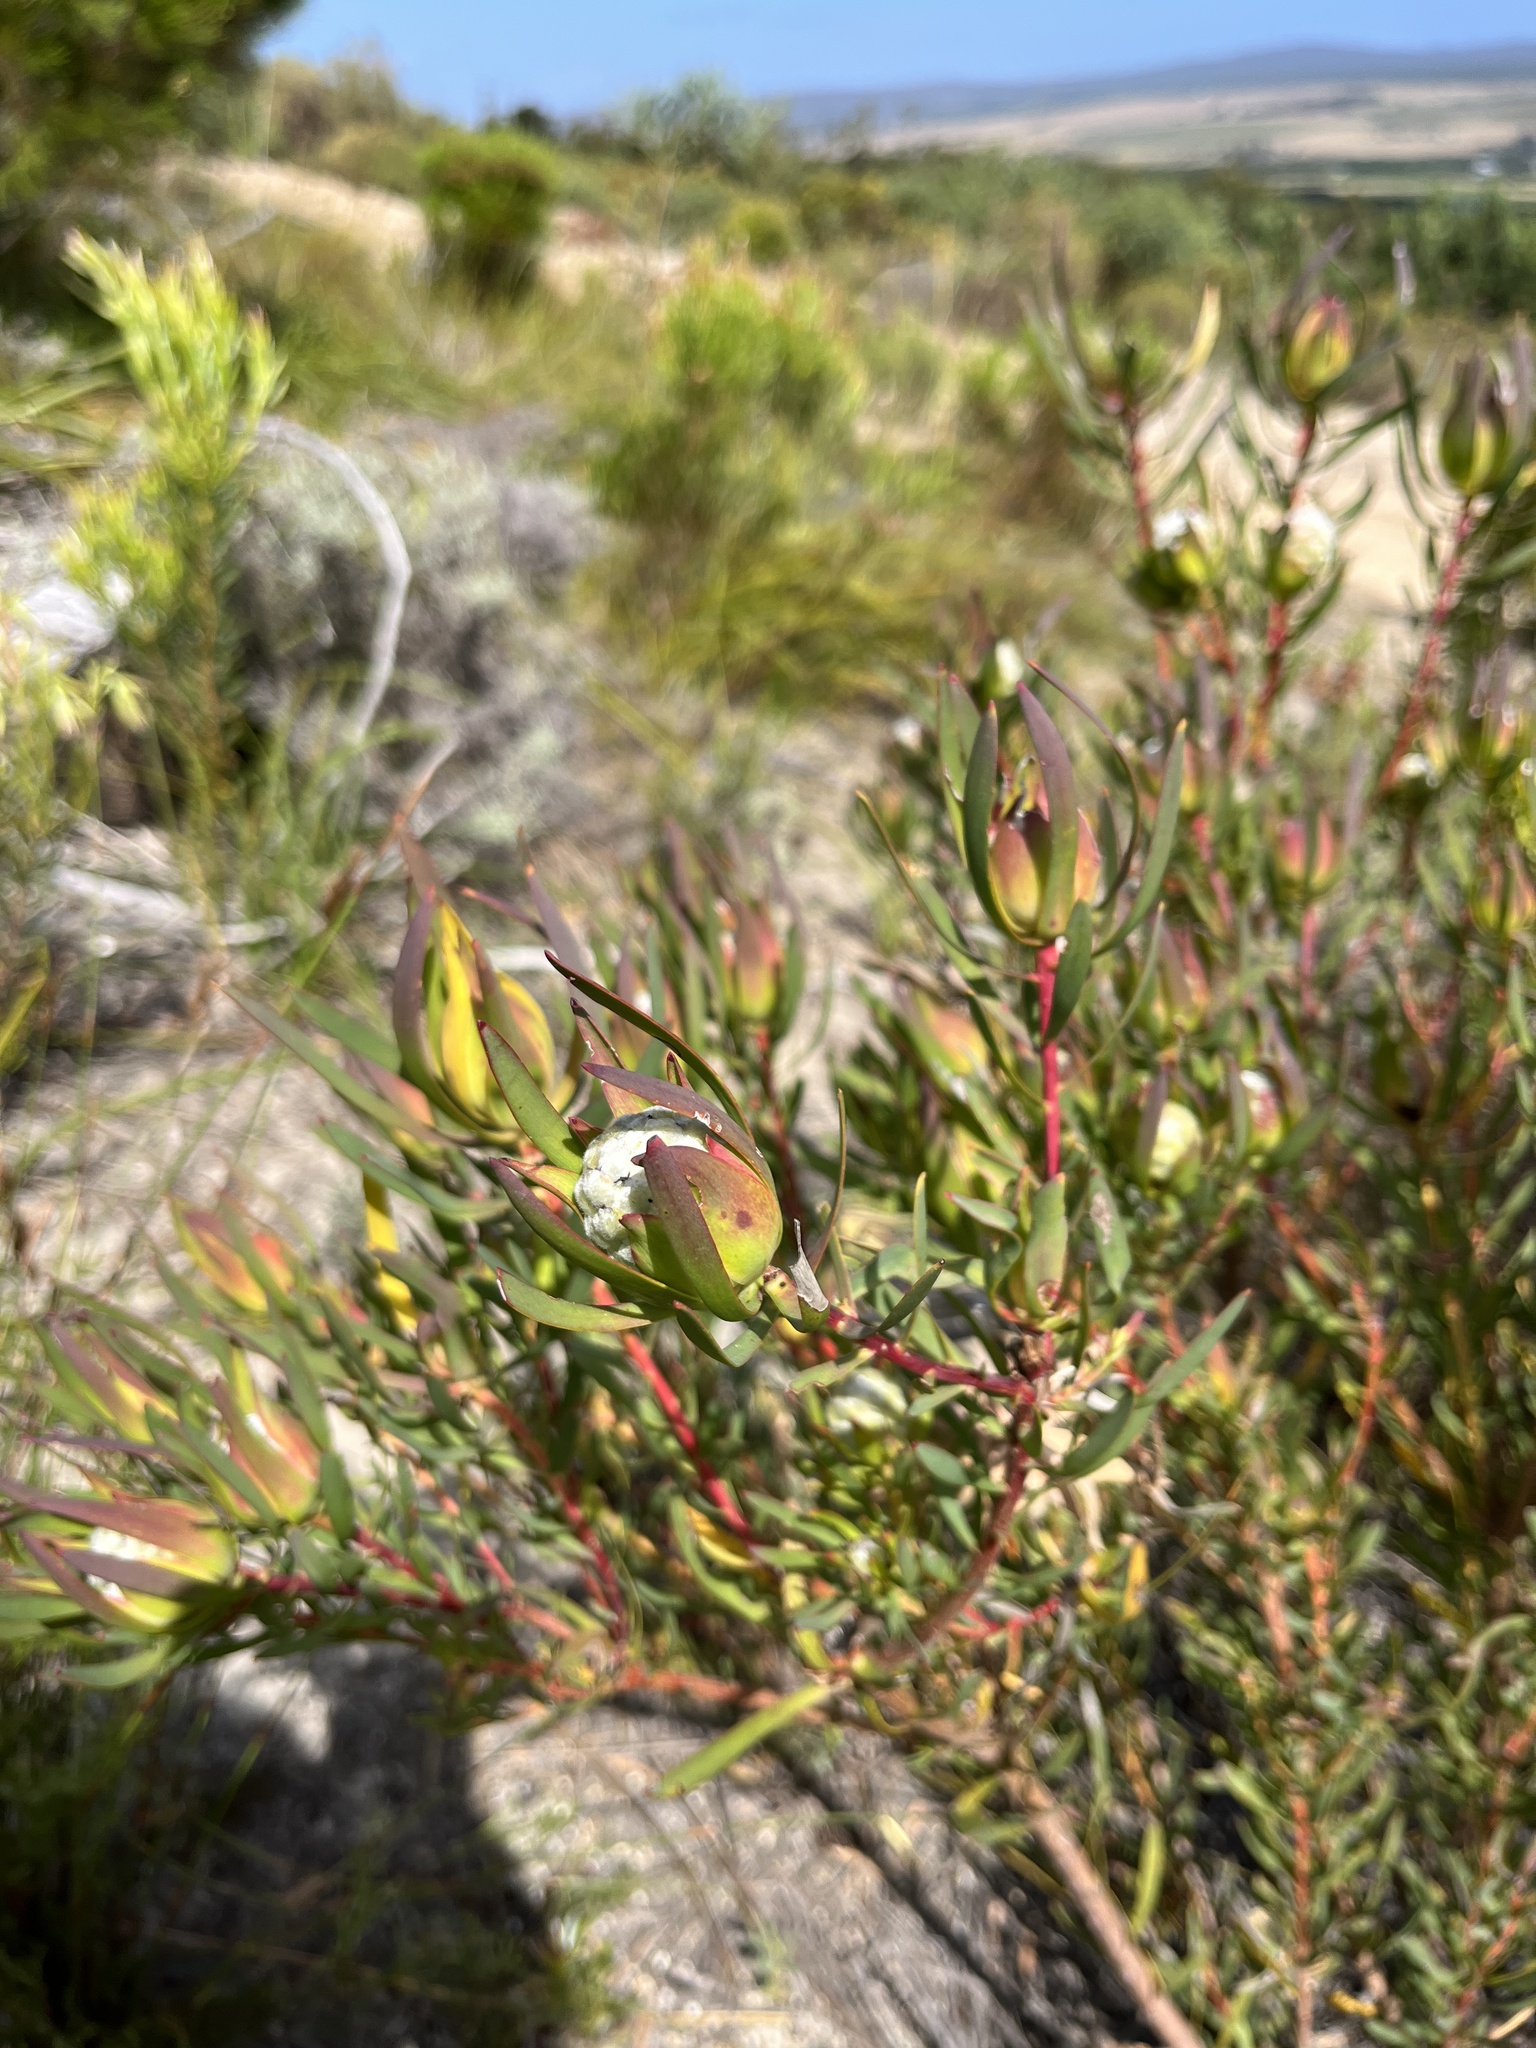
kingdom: Plantae
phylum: Tracheophyta
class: Magnoliopsida
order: Proteales
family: Proteaceae
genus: Leucadendron
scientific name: Leucadendron salignum
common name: Common sunshine conebush
